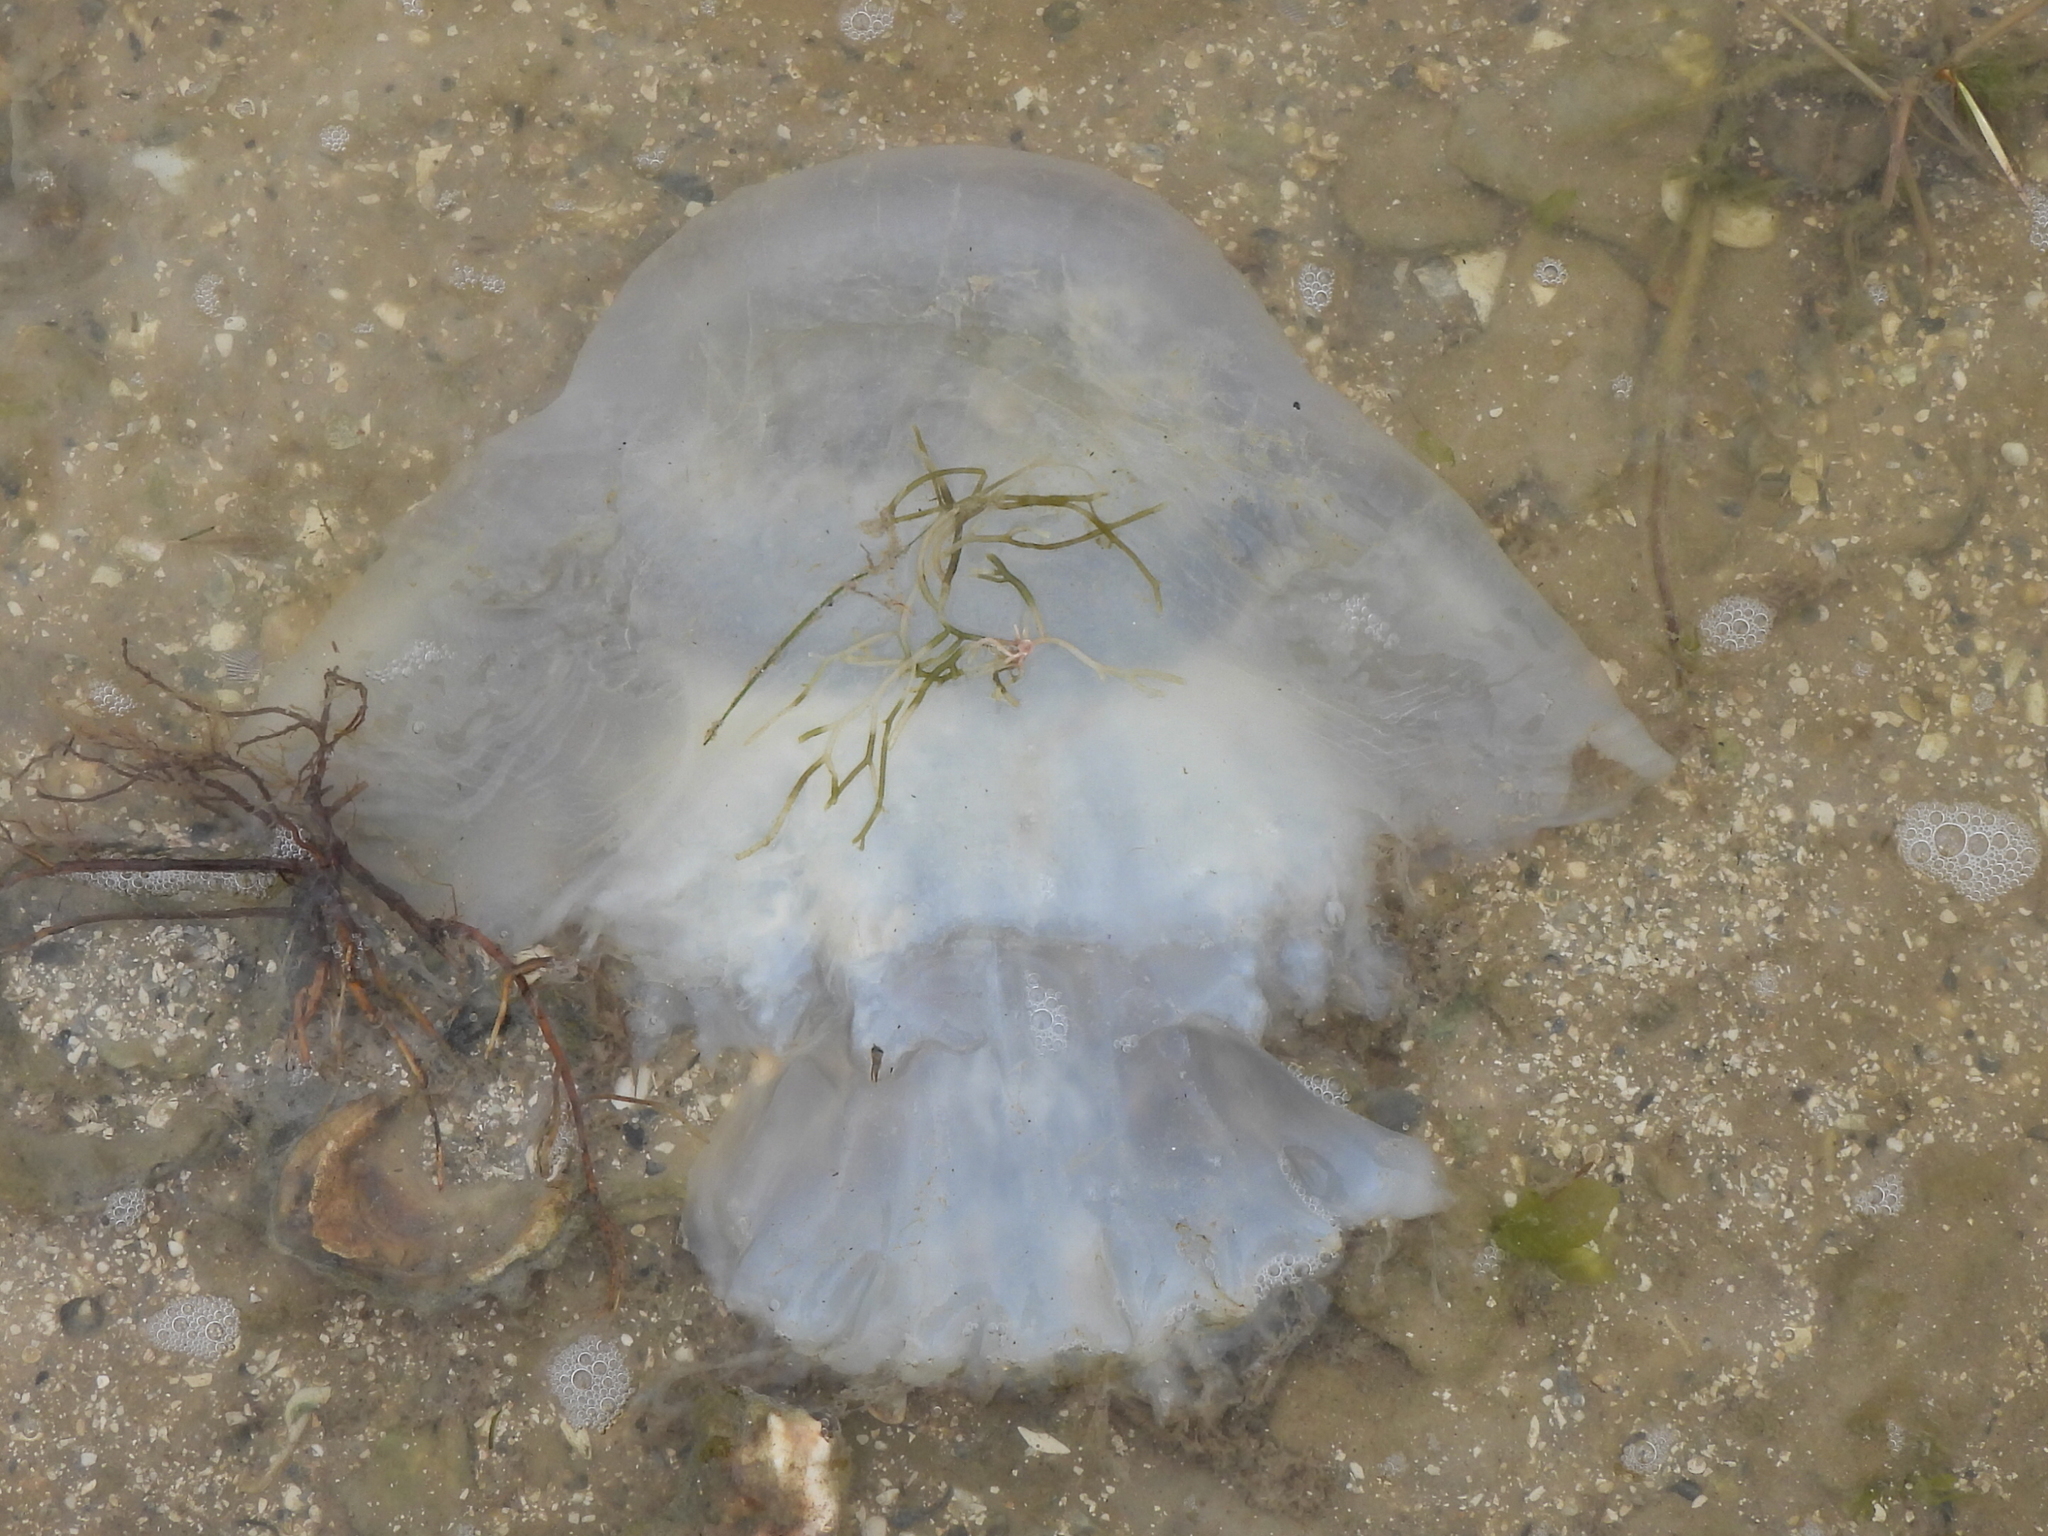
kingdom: Animalia
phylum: Cnidaria
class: Scyphozoa
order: Rhizostomeae
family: Stomolophidae
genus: Stomolophus
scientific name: Stomolophus meleagris
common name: Cabbagehead
